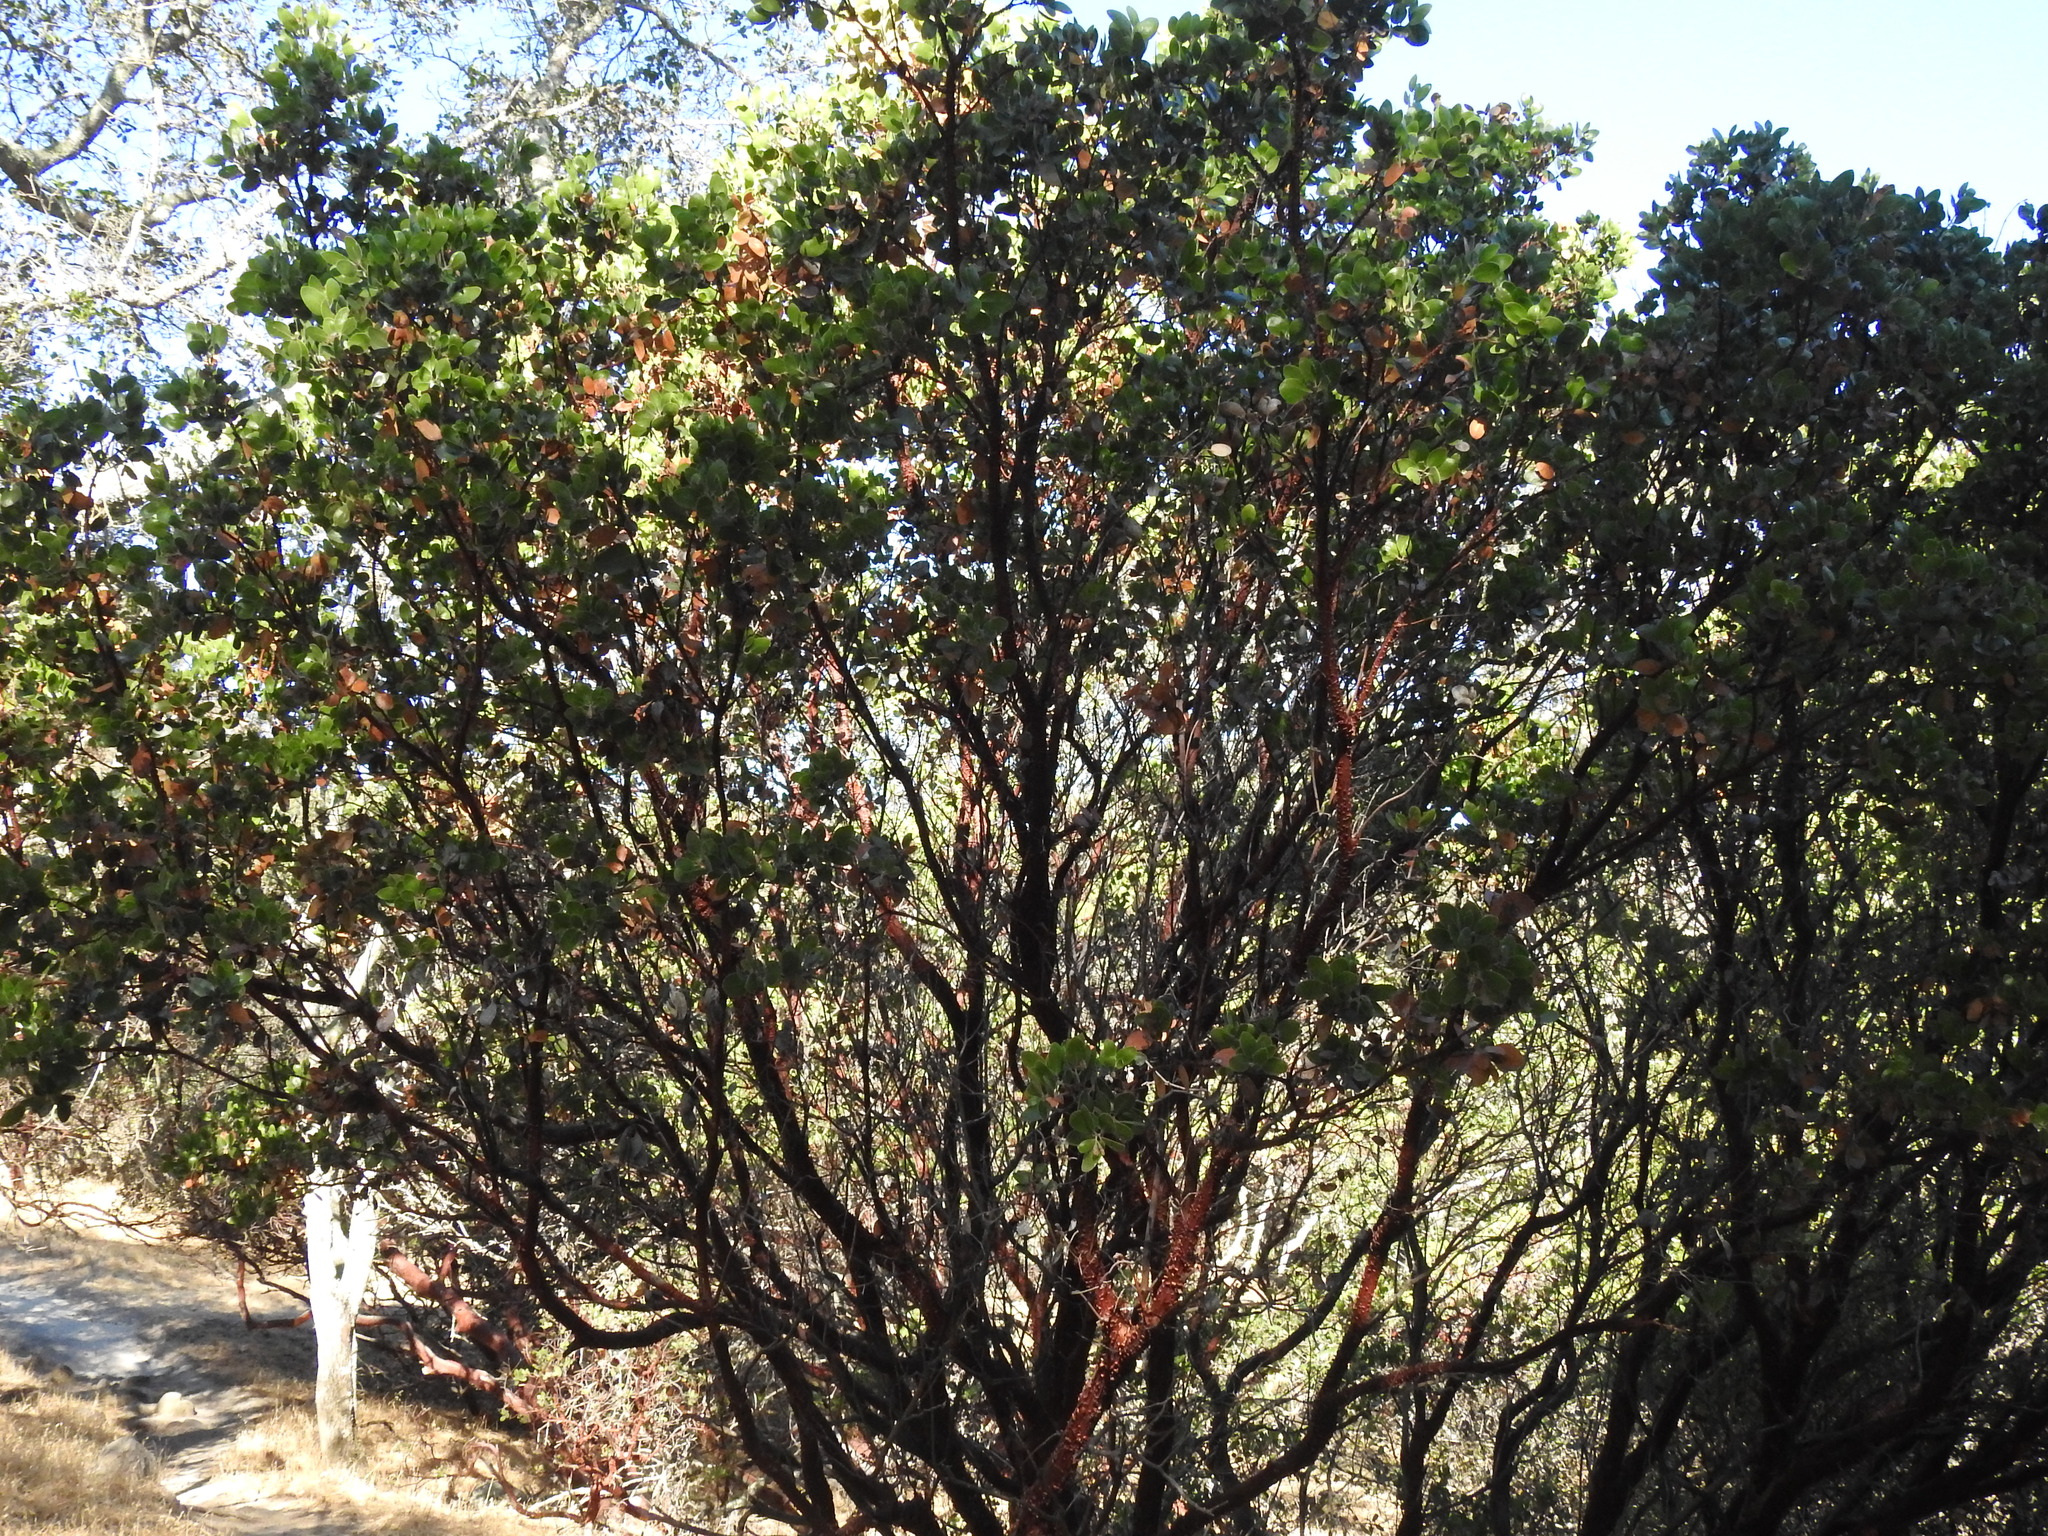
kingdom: Plantae
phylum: Tracheophyta
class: Magnoliopsida
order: Ericales
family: Ericaceae
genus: Arctostaphylos
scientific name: Arctostaphylos manzanita
